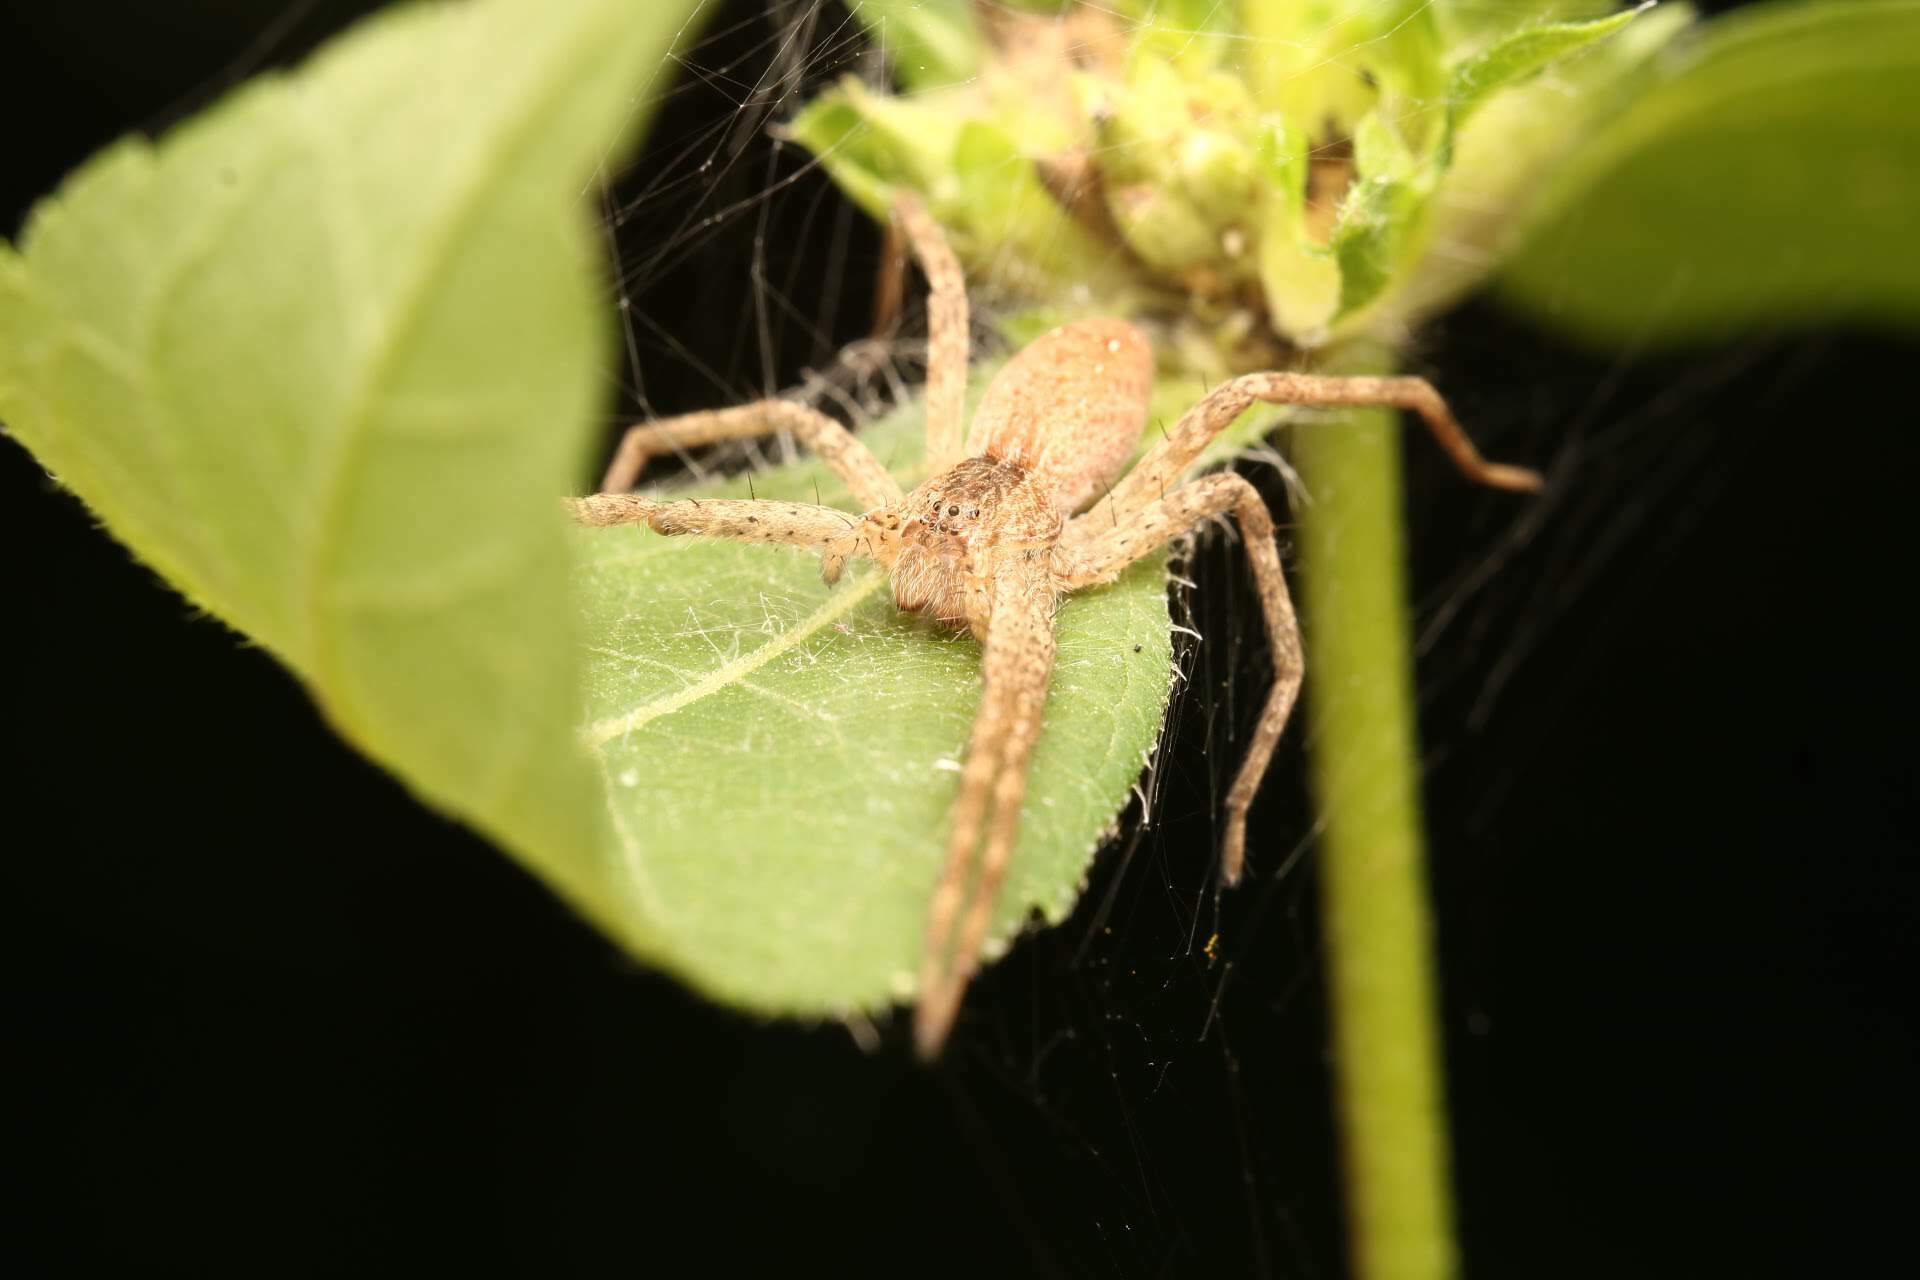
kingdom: Animalia
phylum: Arthropoda
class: Arachnida
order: Araneae
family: Pisauridae
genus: Pisaurina
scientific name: Pisaurina mira
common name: American nursery web spider
